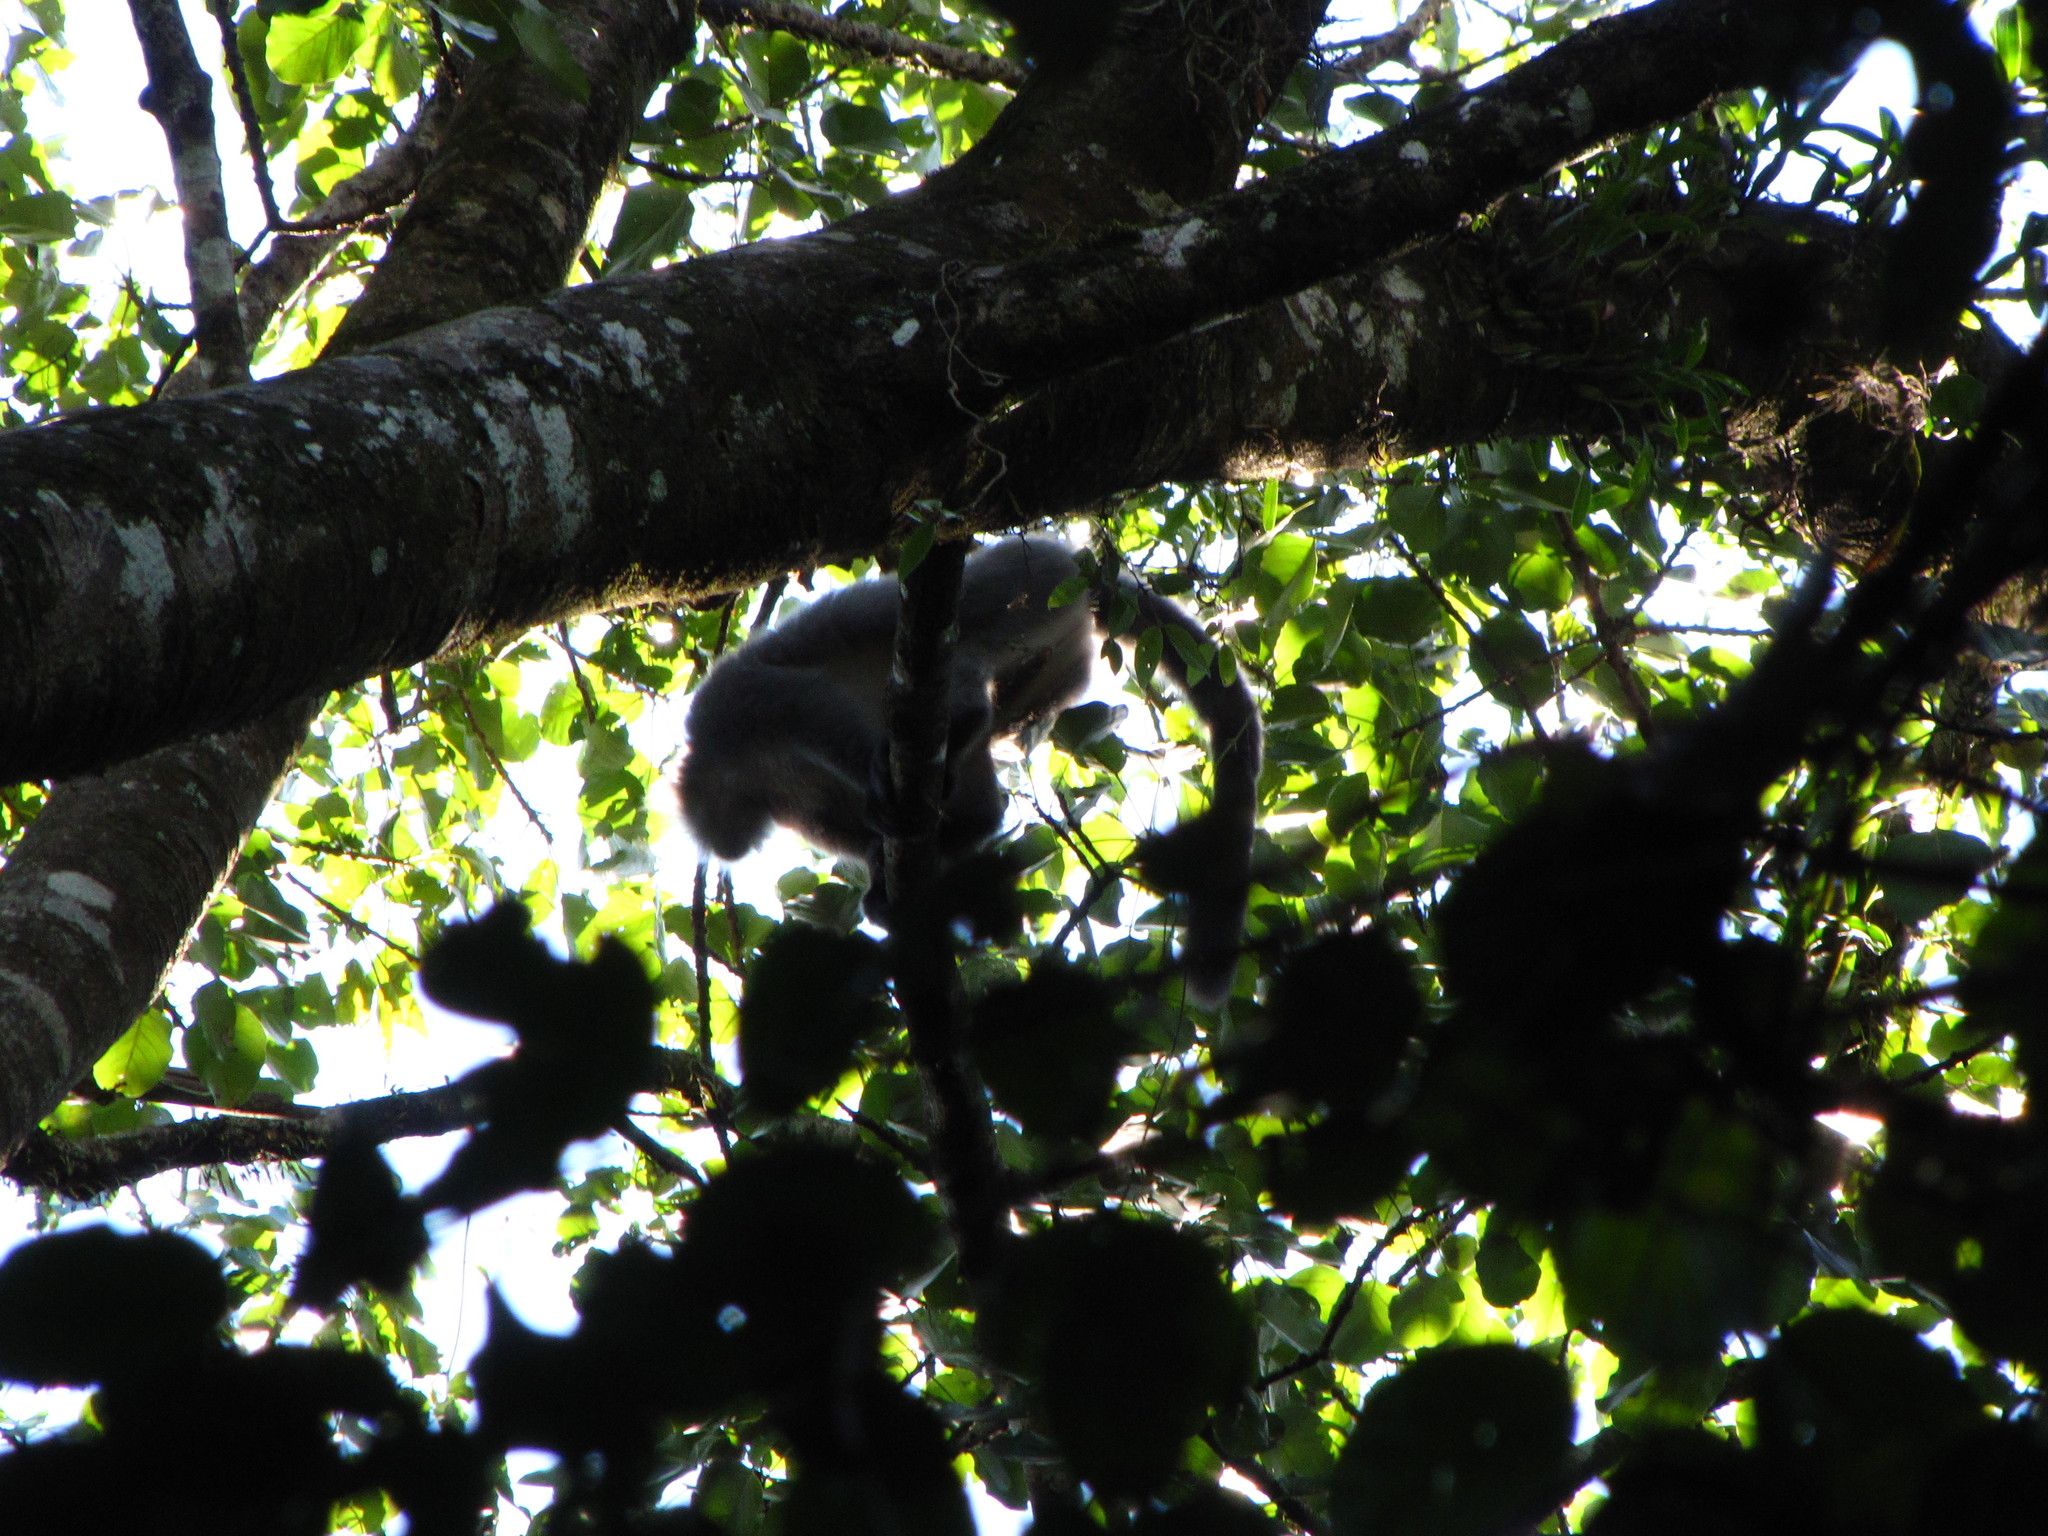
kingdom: Animalia
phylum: Chordata
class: Mammalia
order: Primates
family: Cercopithecidae
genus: Trachypithecus
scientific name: Trachypithecus pileatus
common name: Capped langur
